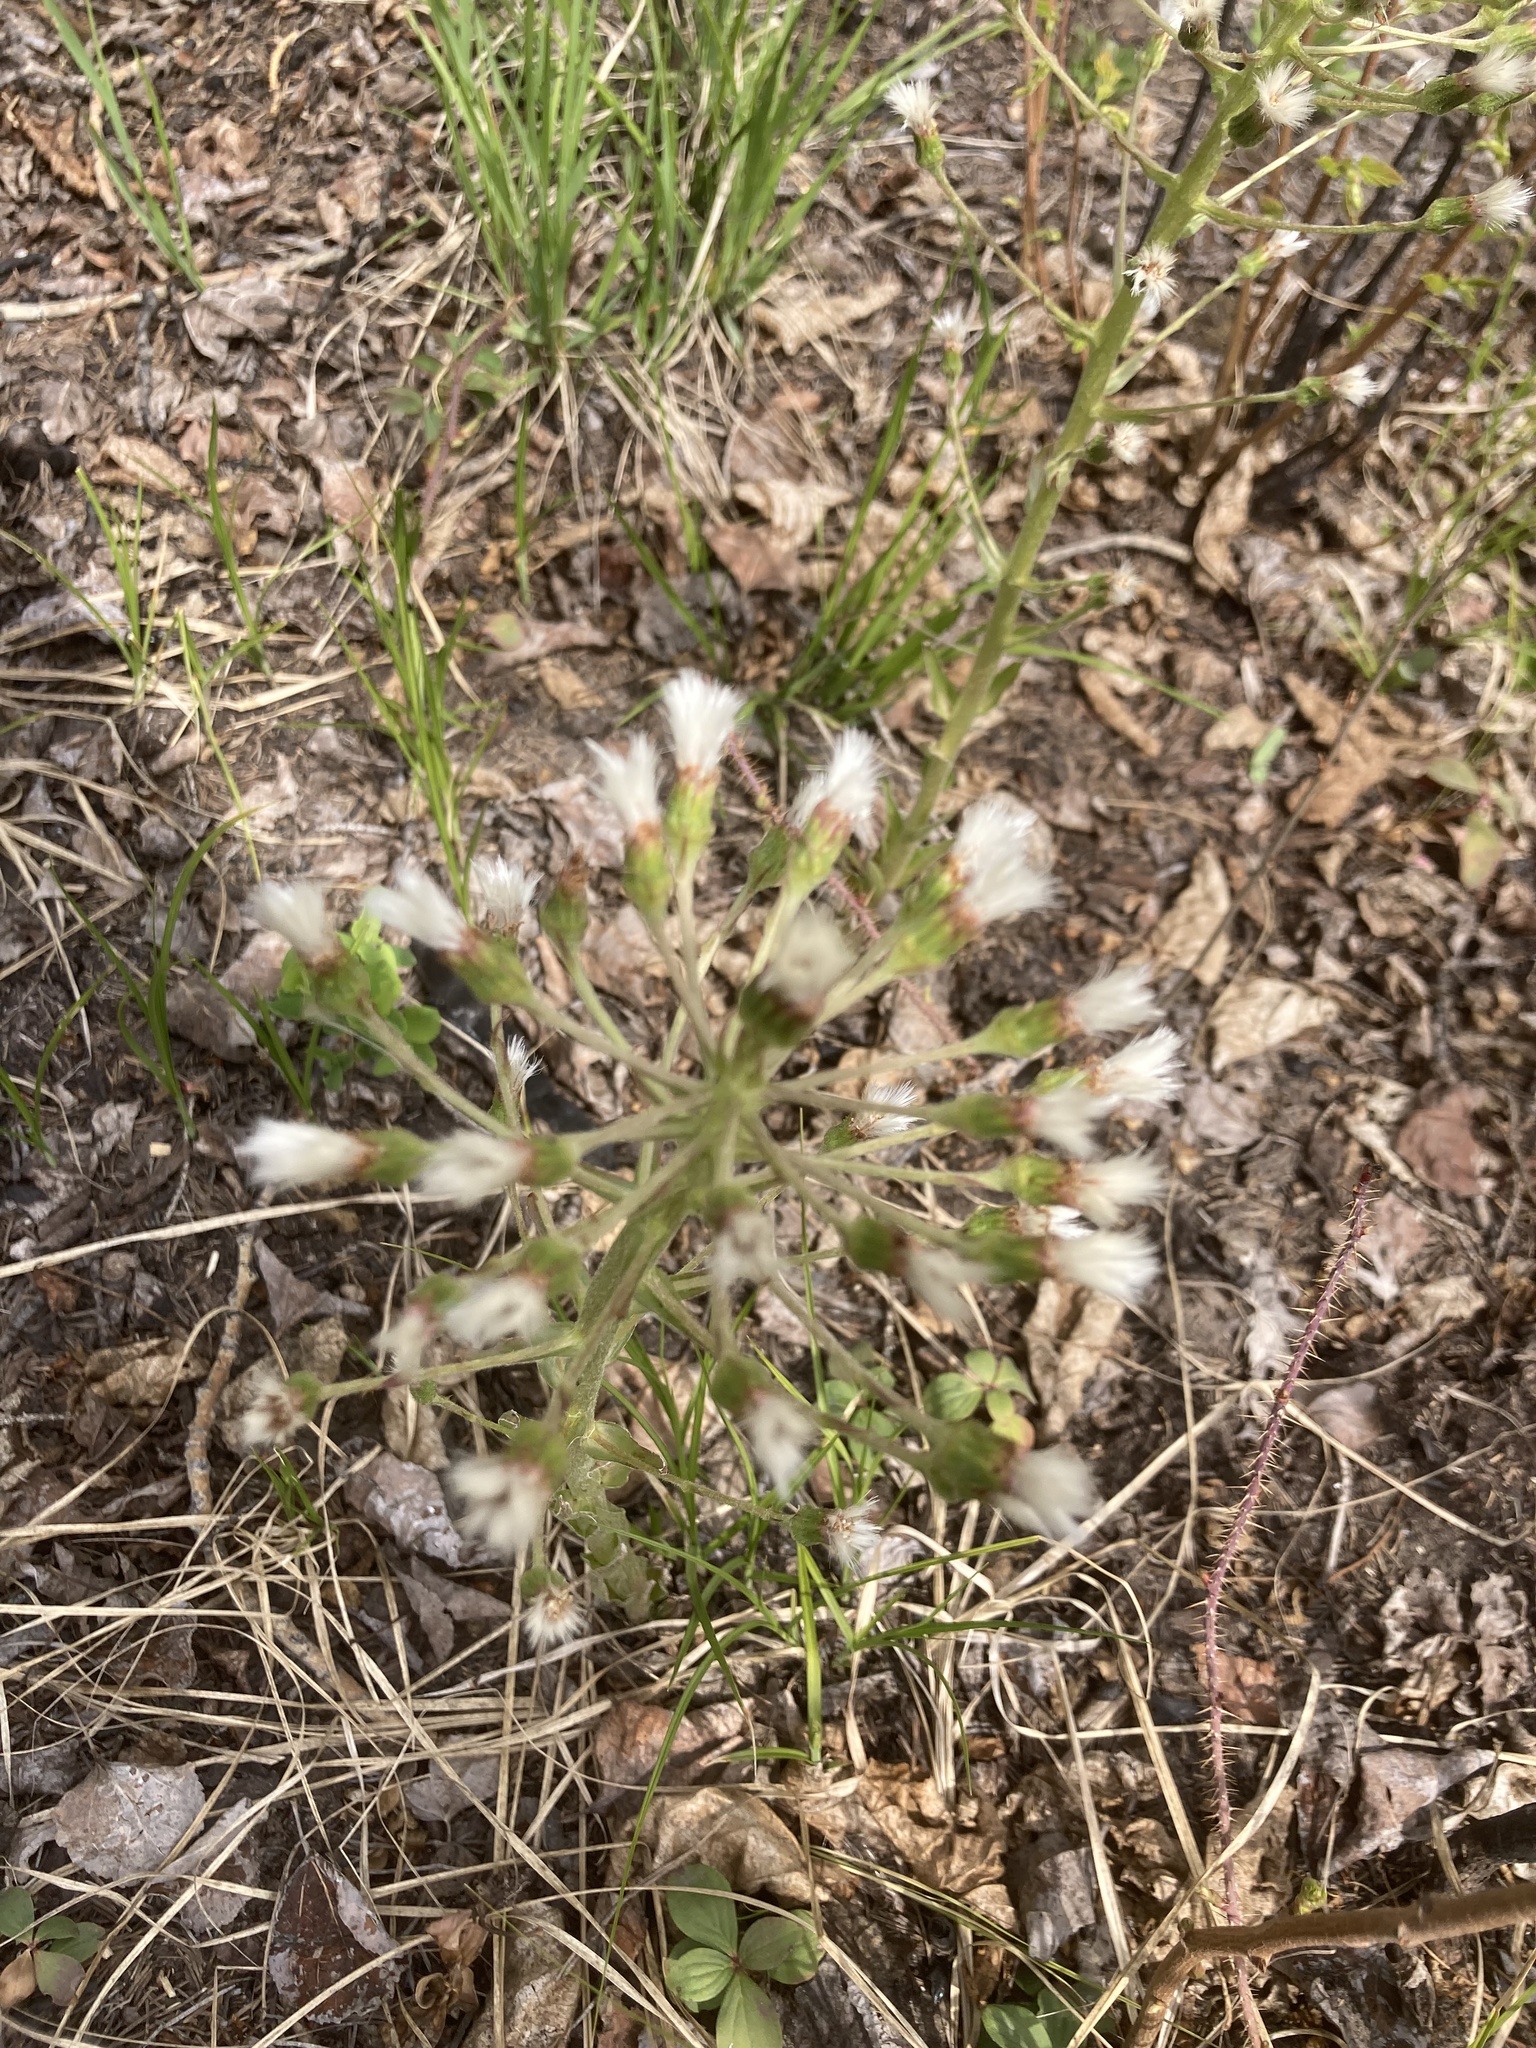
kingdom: Plantae
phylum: Tracheophyta
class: Magnoliopsida
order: Asterales
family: Asteraceae
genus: Petasites
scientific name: Petasites frigidus
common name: Arctic butterbur
